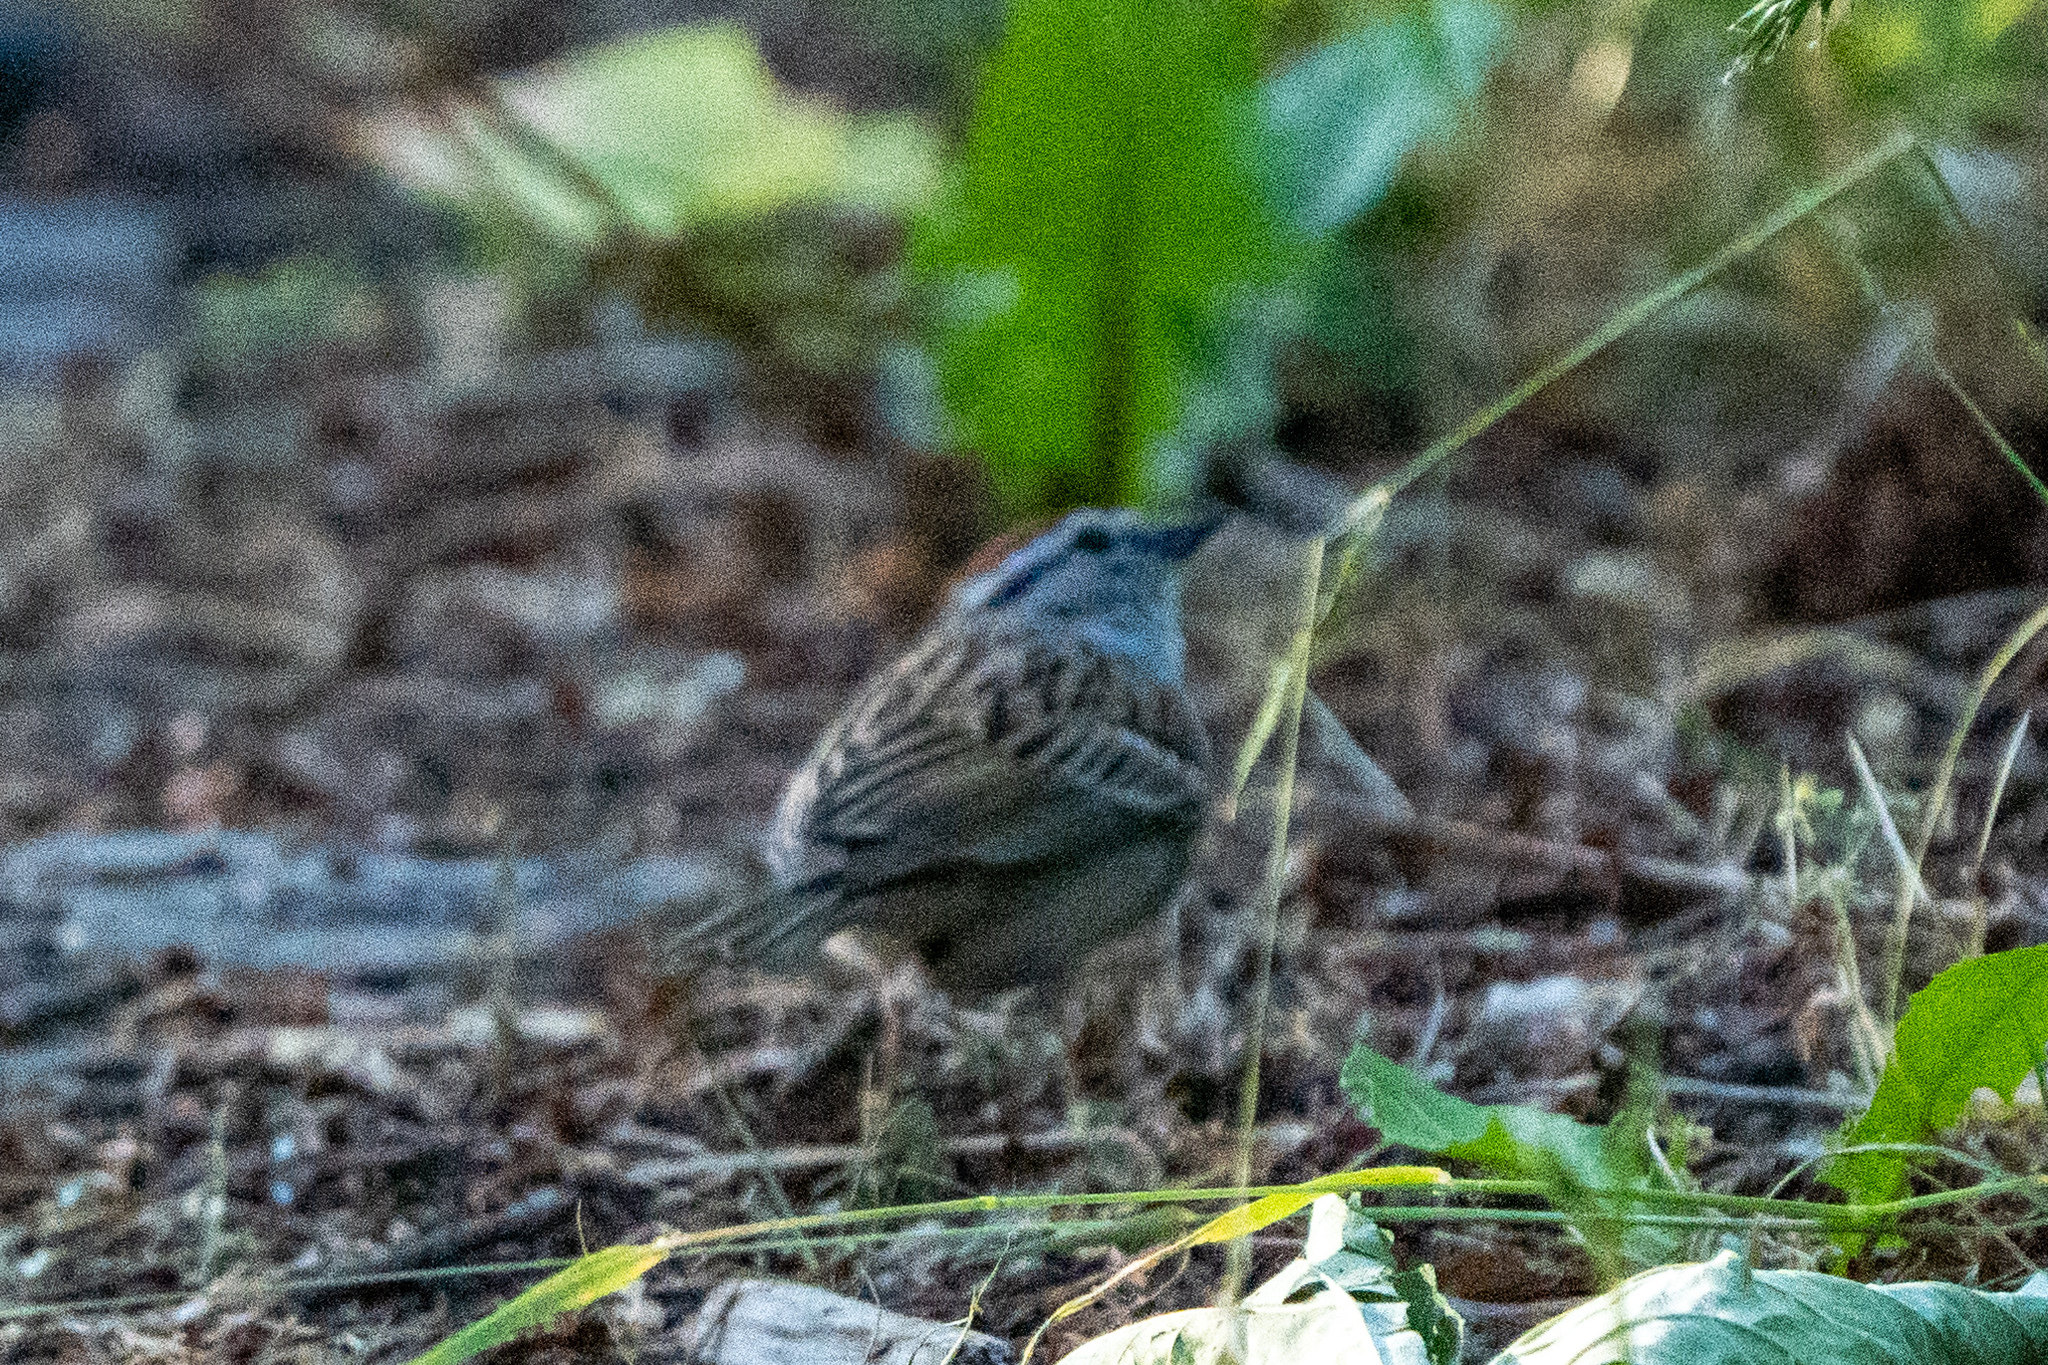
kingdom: Animalia
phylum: Chordata
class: Aves
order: Passeriformes
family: Passerellidae
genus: Spizella
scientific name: Spizella passerina
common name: Chipping sparrow
